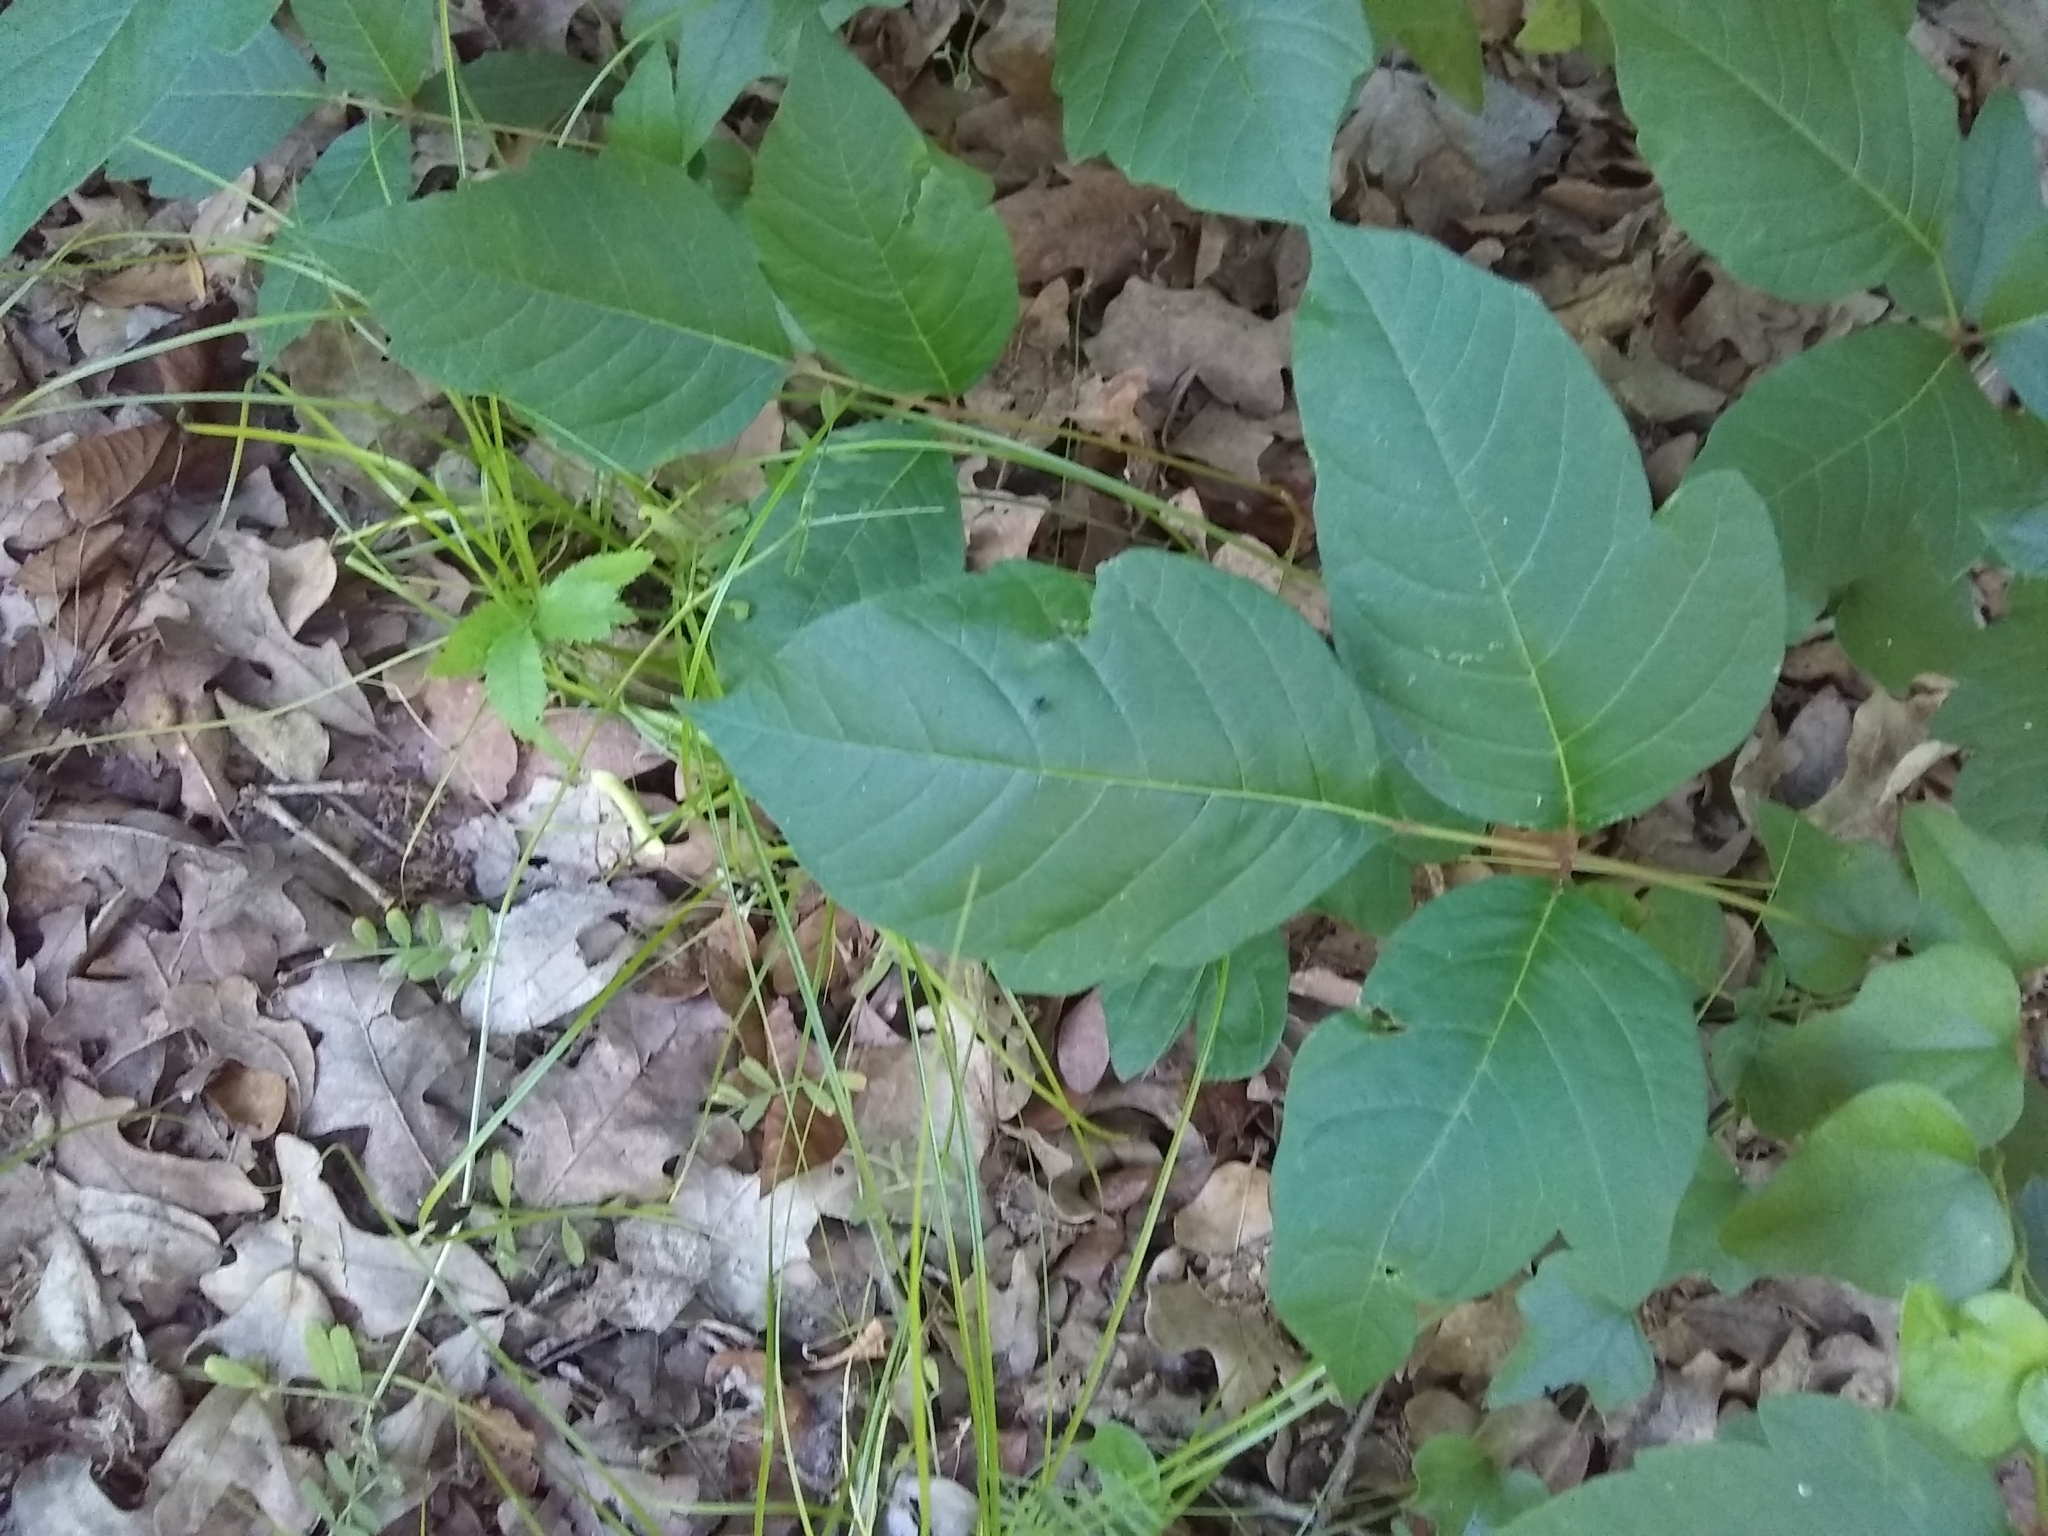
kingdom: Plantae
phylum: Tracheophyta
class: Magnoliopsida
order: Sapindales
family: Anacardiaceae
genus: Toxicodendron
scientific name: Toxicodendron radicans
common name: Poison ivy
